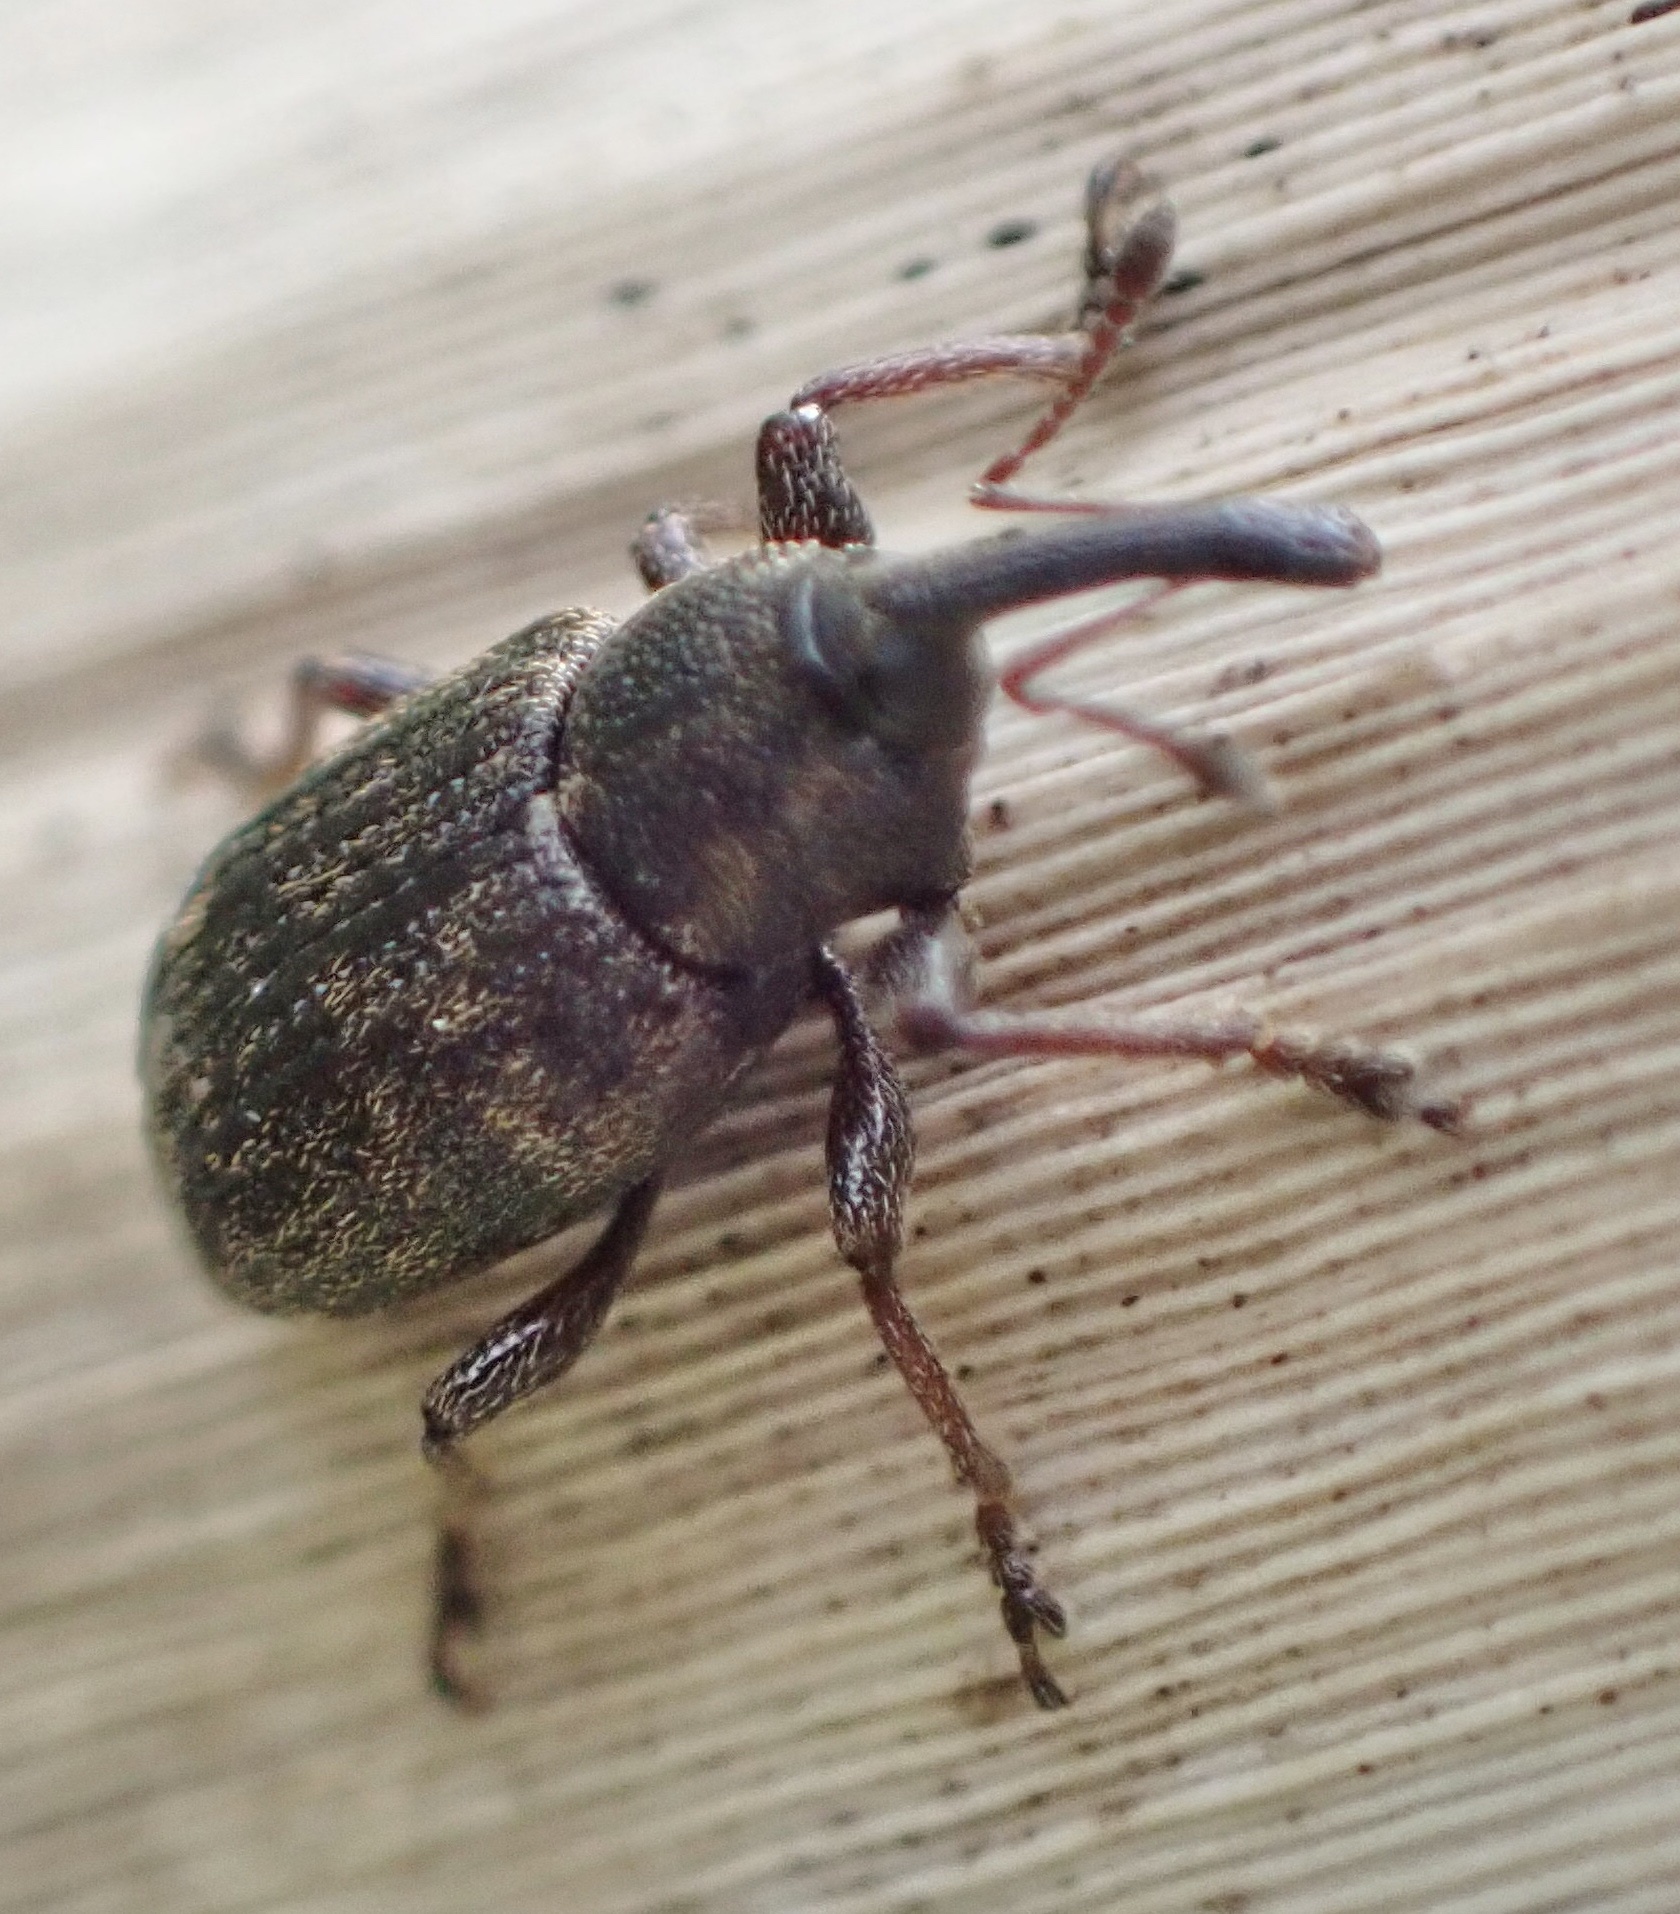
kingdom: Animalia
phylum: Arthropoda
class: Insecta
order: Coleoptera
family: Brachyceridae
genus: Notaris
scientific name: Notaris acridulus
